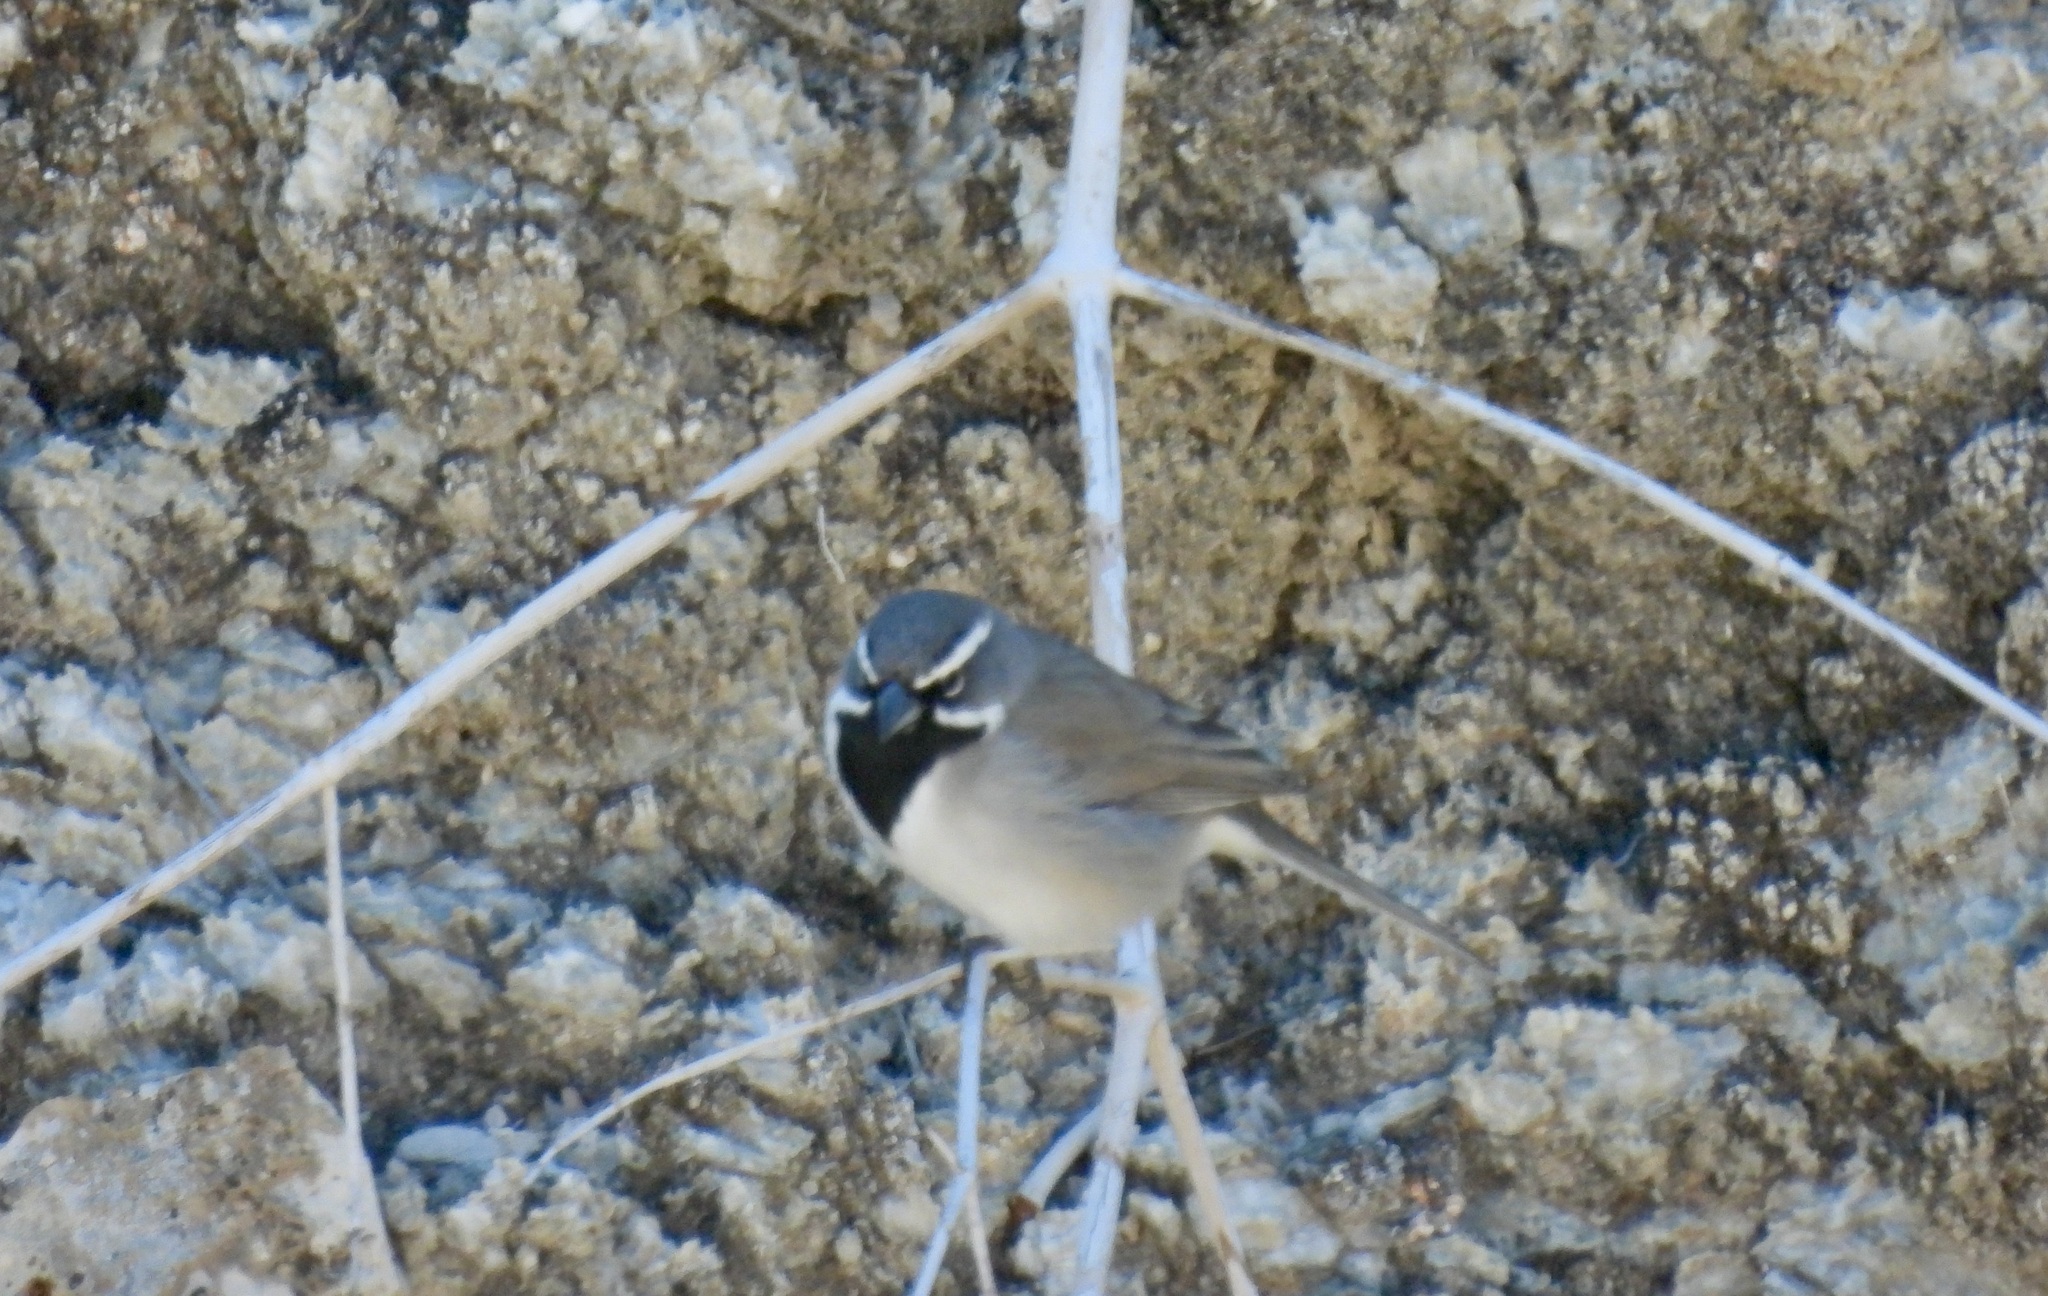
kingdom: Animalia
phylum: Chordata
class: Aves
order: Passeriformes
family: Passerellidae
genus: Amphispiza
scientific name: Amphispiza bilineata
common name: Black-throated sparrow
